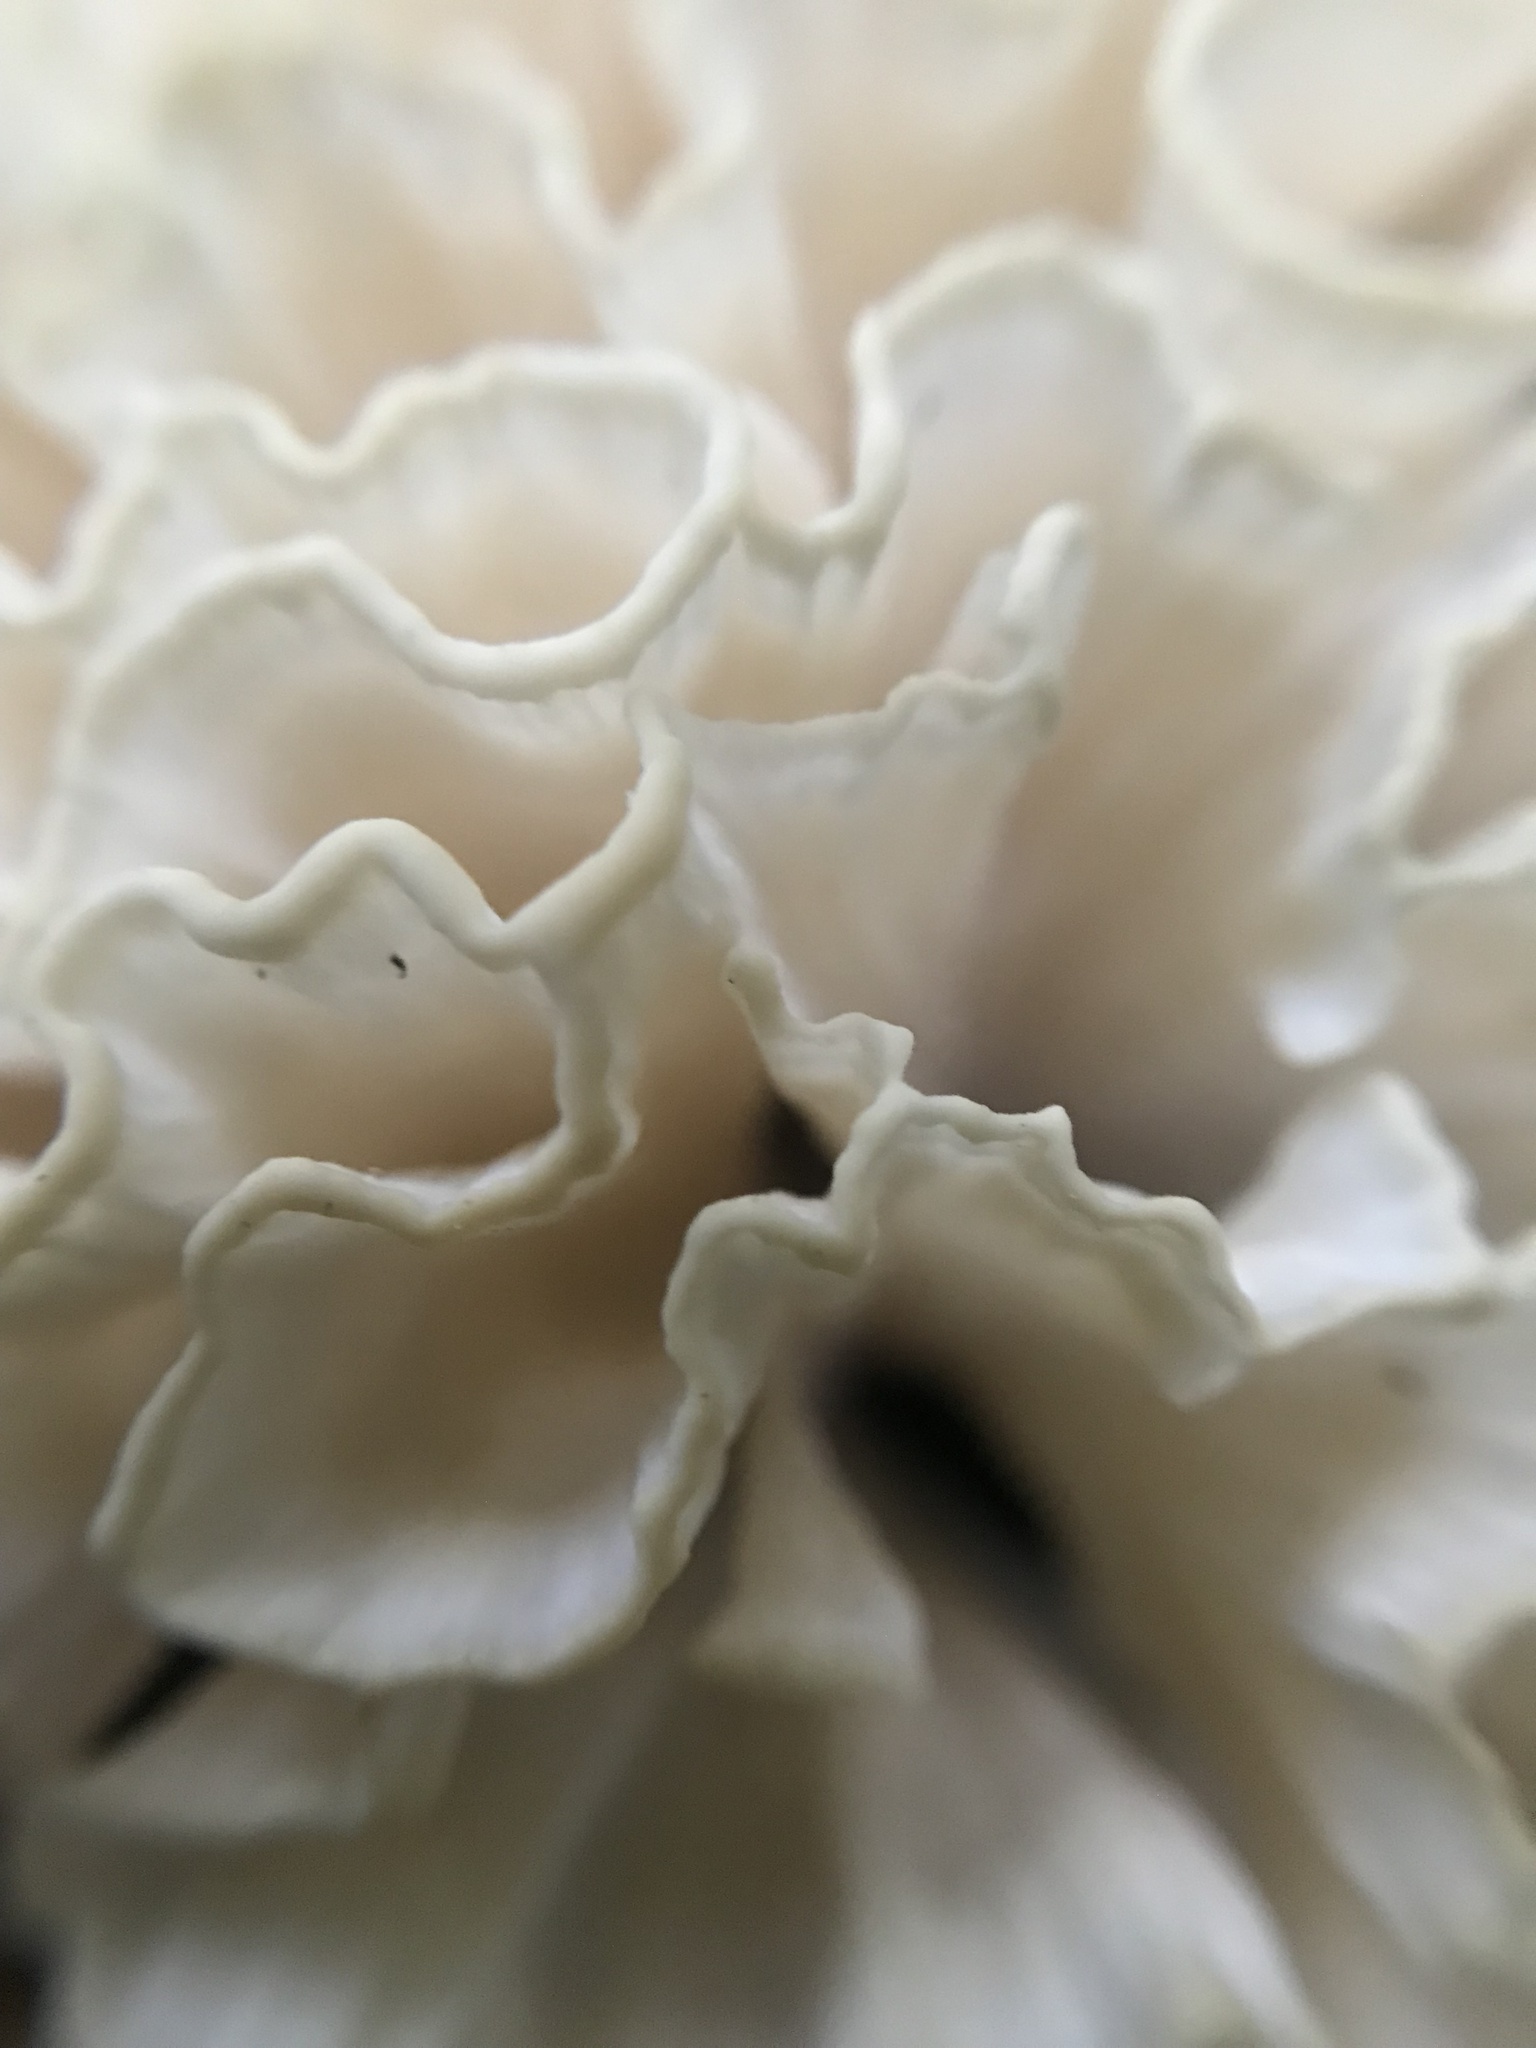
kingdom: Fungi
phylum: Basidiomycota
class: Agaricomycetes
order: Polyporales
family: Irpicaceae
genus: Irpex
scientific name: Irpex rosettiformis
